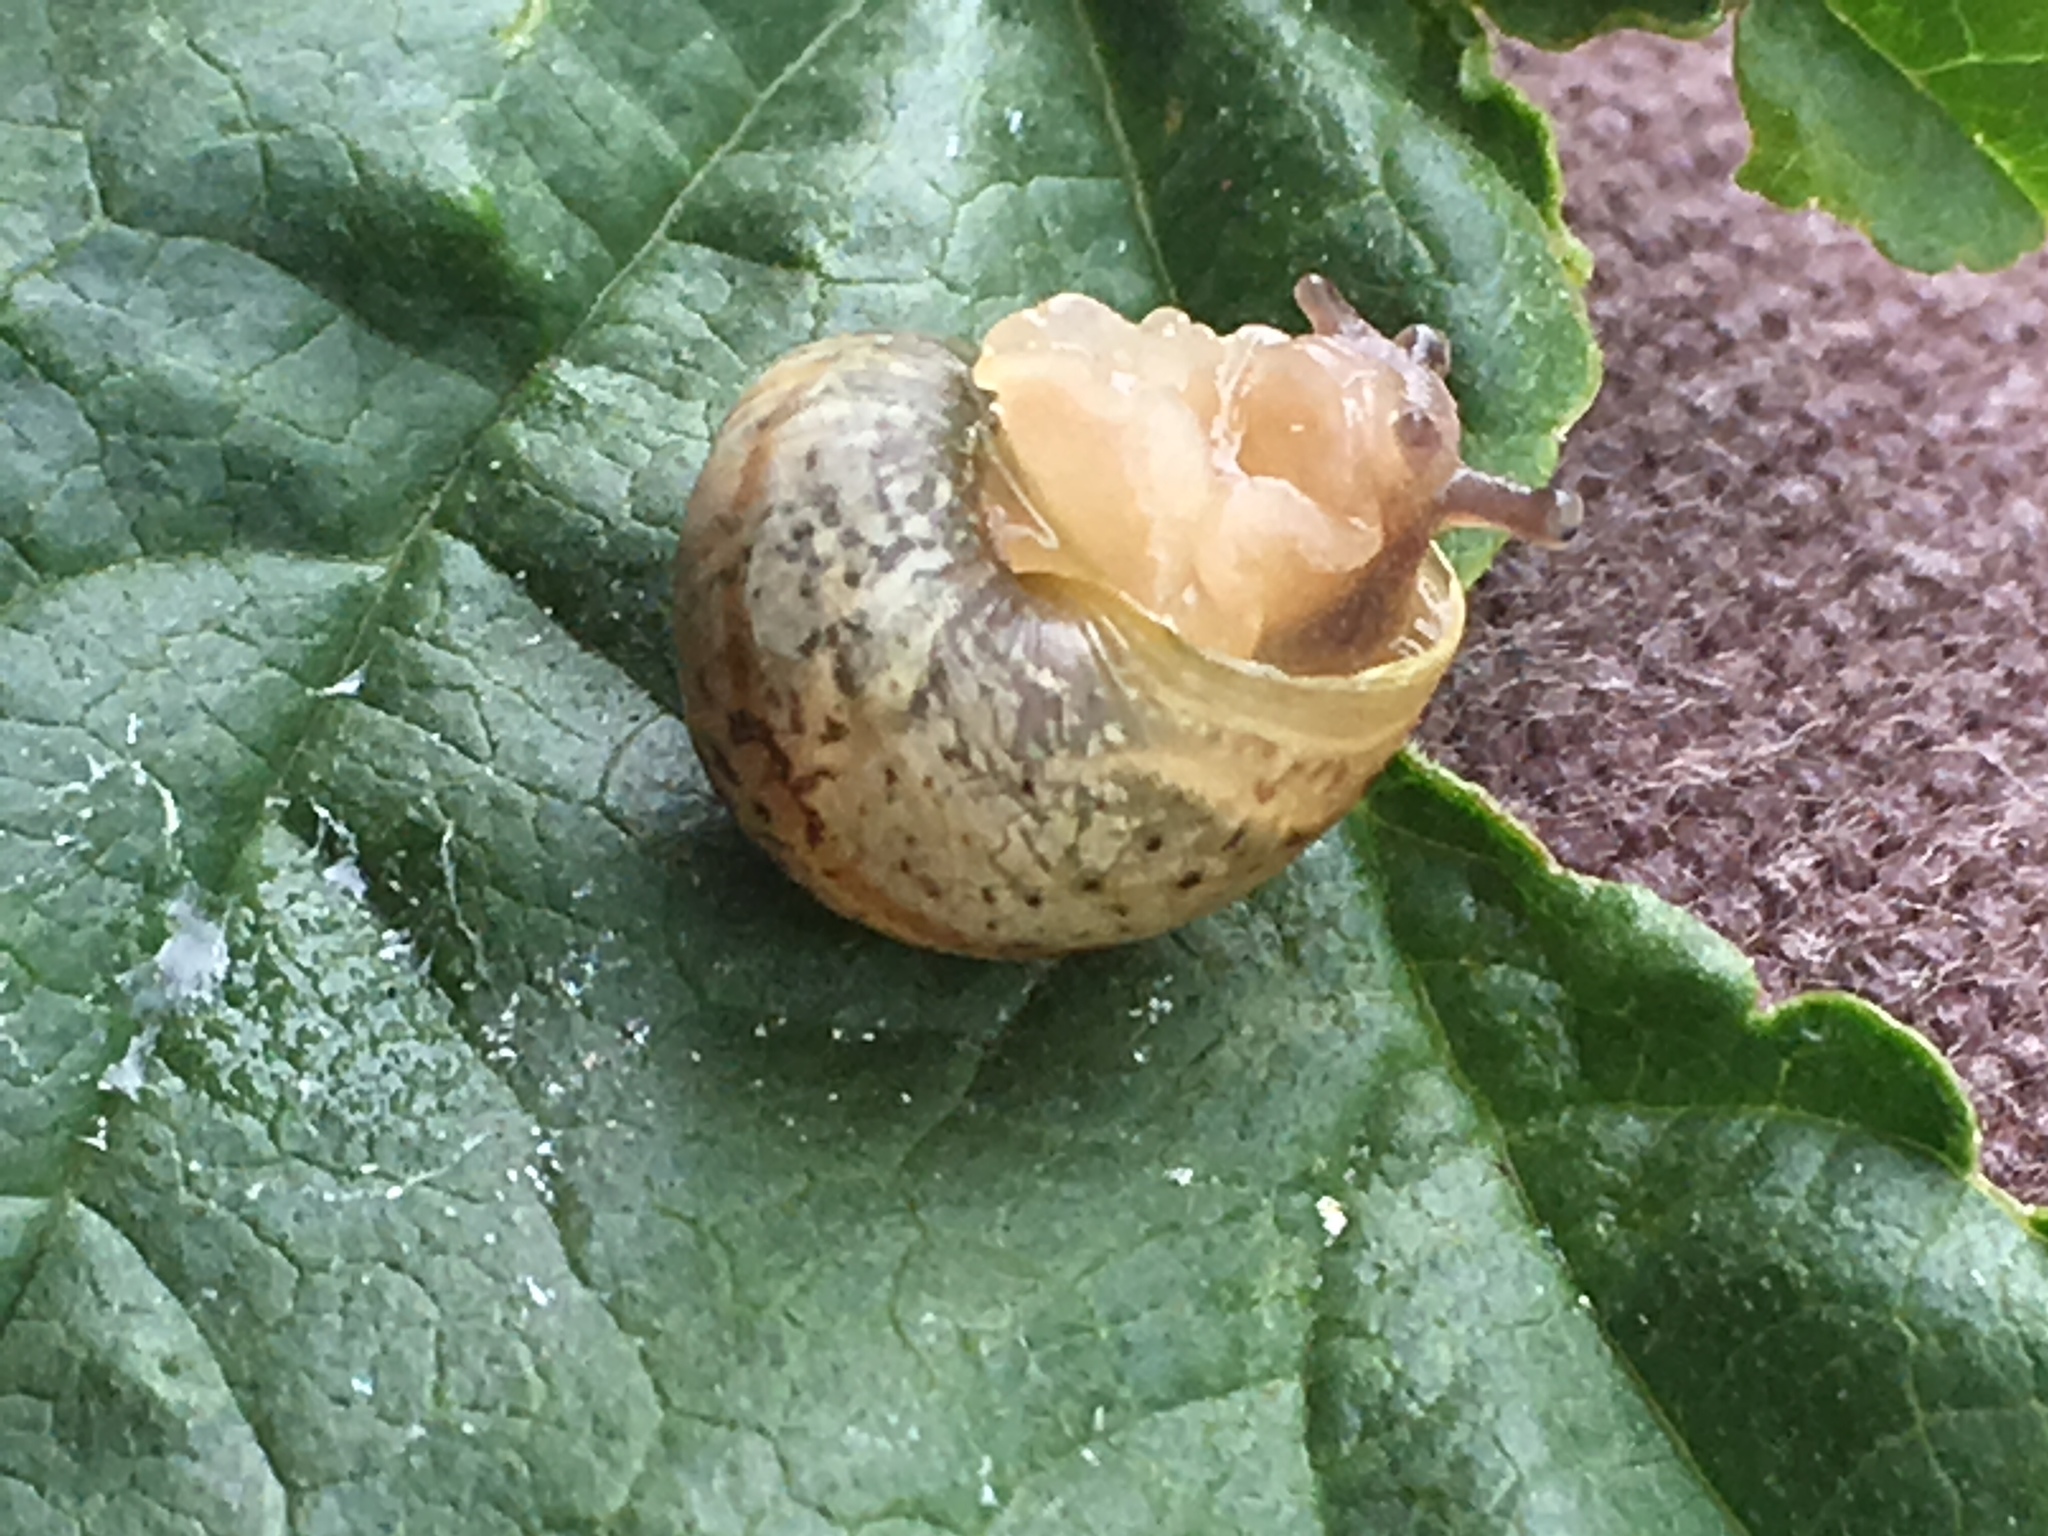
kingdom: Animalia
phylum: Mollusca
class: Gastropoda
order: Stylommatophora
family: Helicidae
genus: Otala
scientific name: Otala lactea
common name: Milk snail
